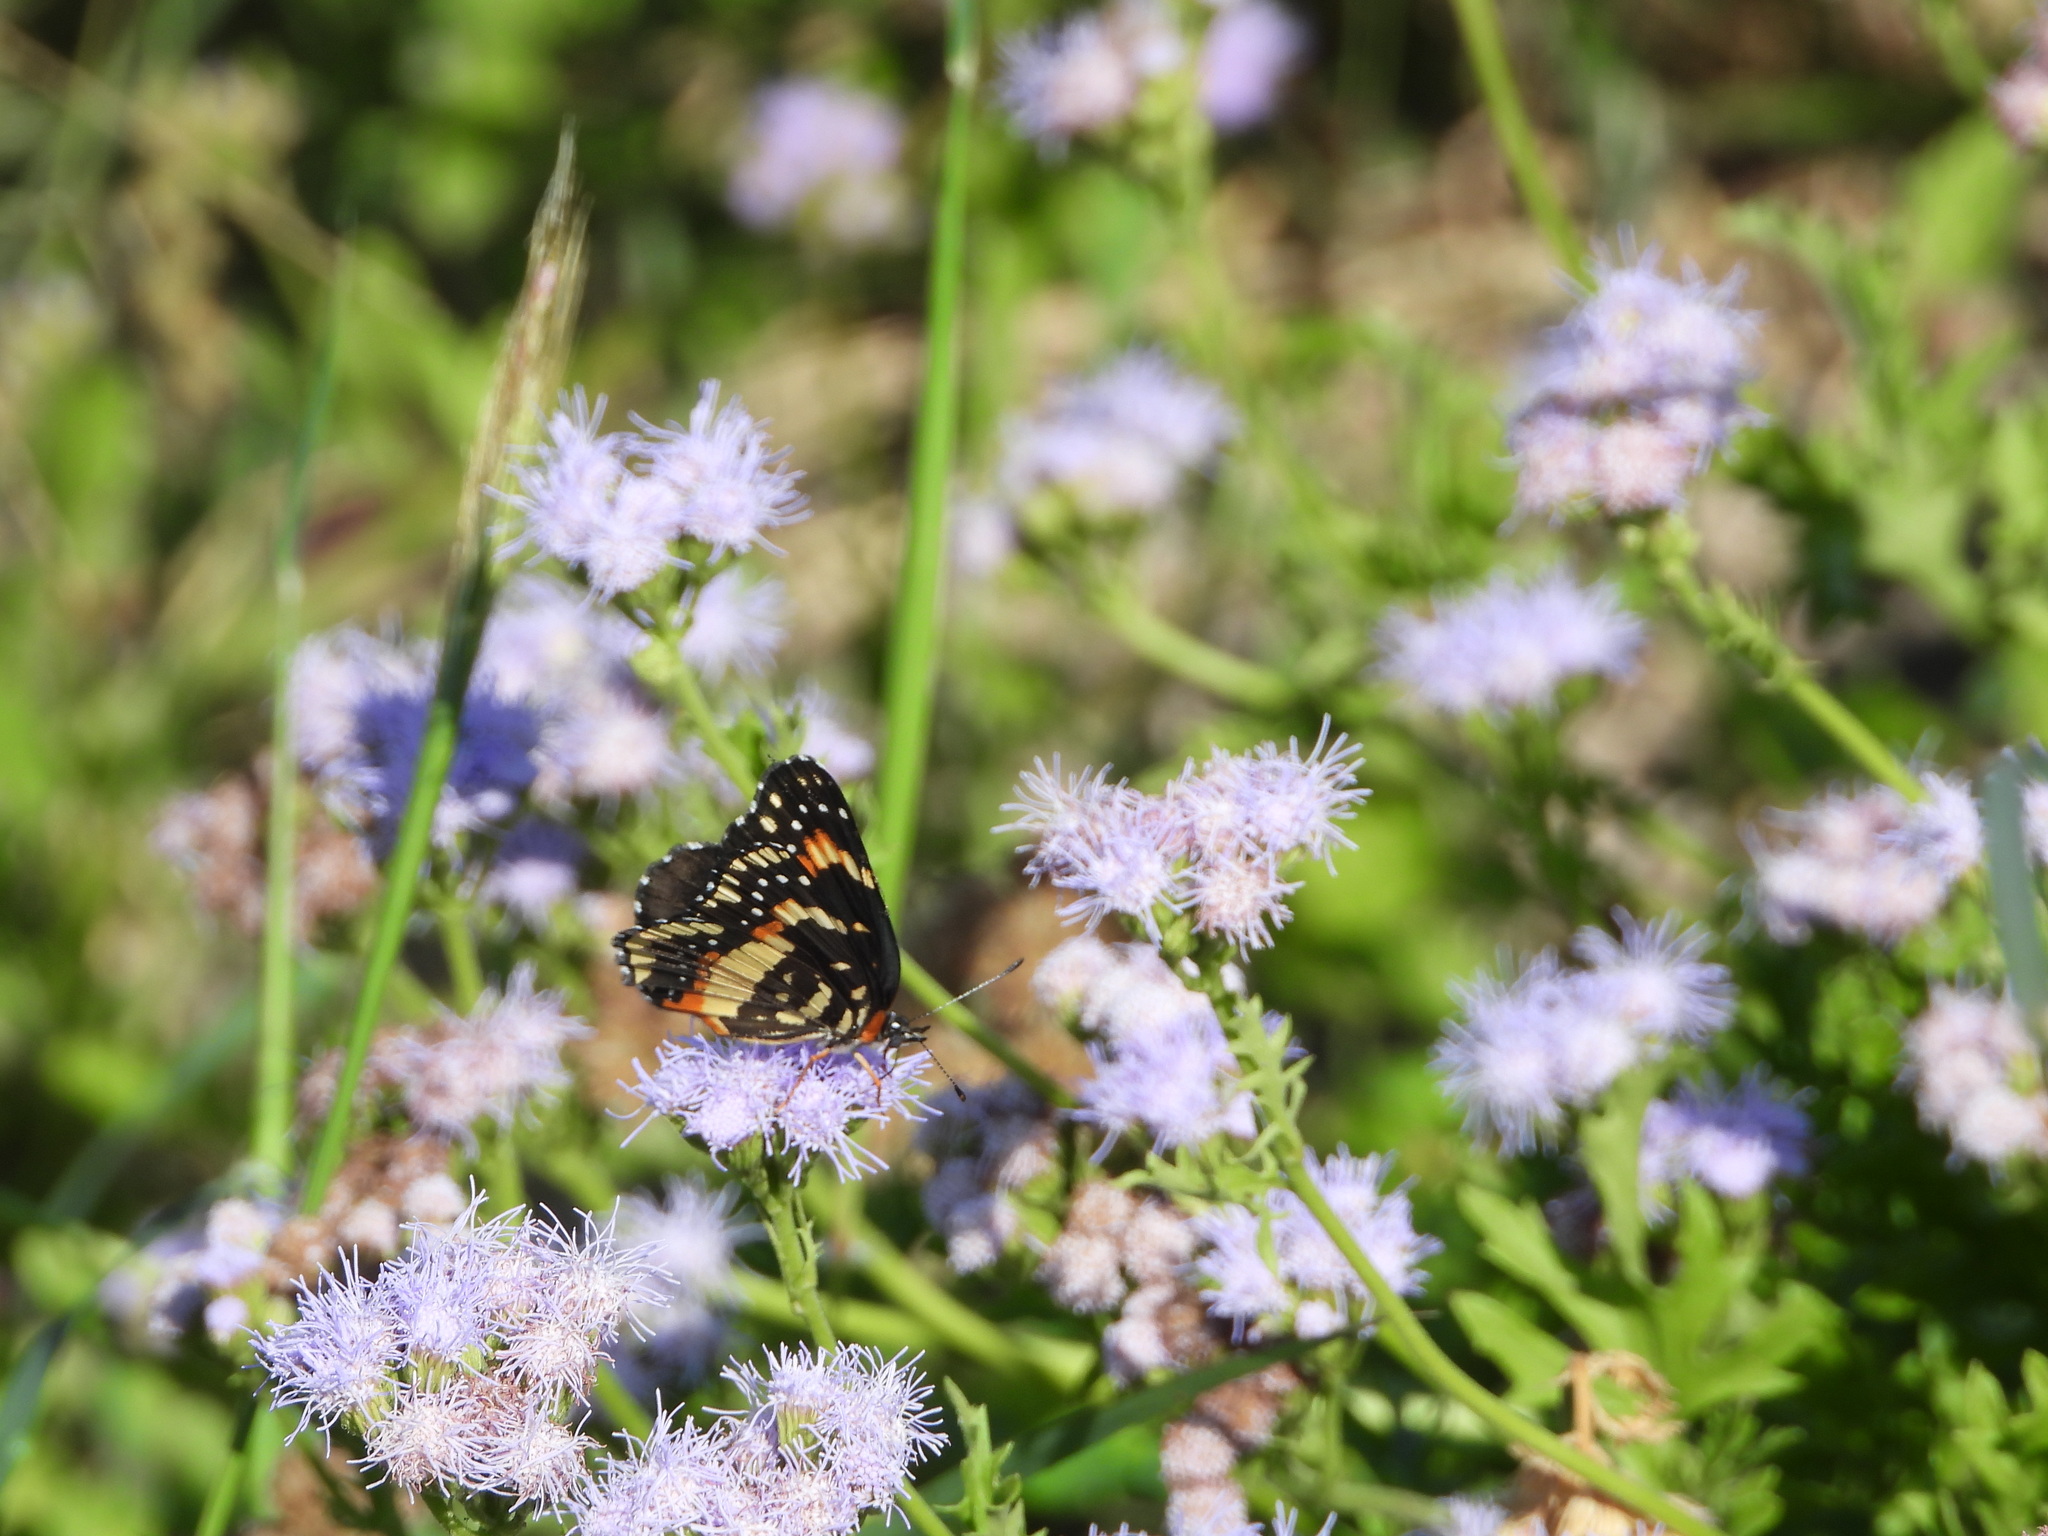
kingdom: Animalia
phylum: Arthropoda
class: Insecta
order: Lepidoptera
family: Nymphalidae
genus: Chlosyne
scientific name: Chlosyne lacinia
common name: Bordered patch
